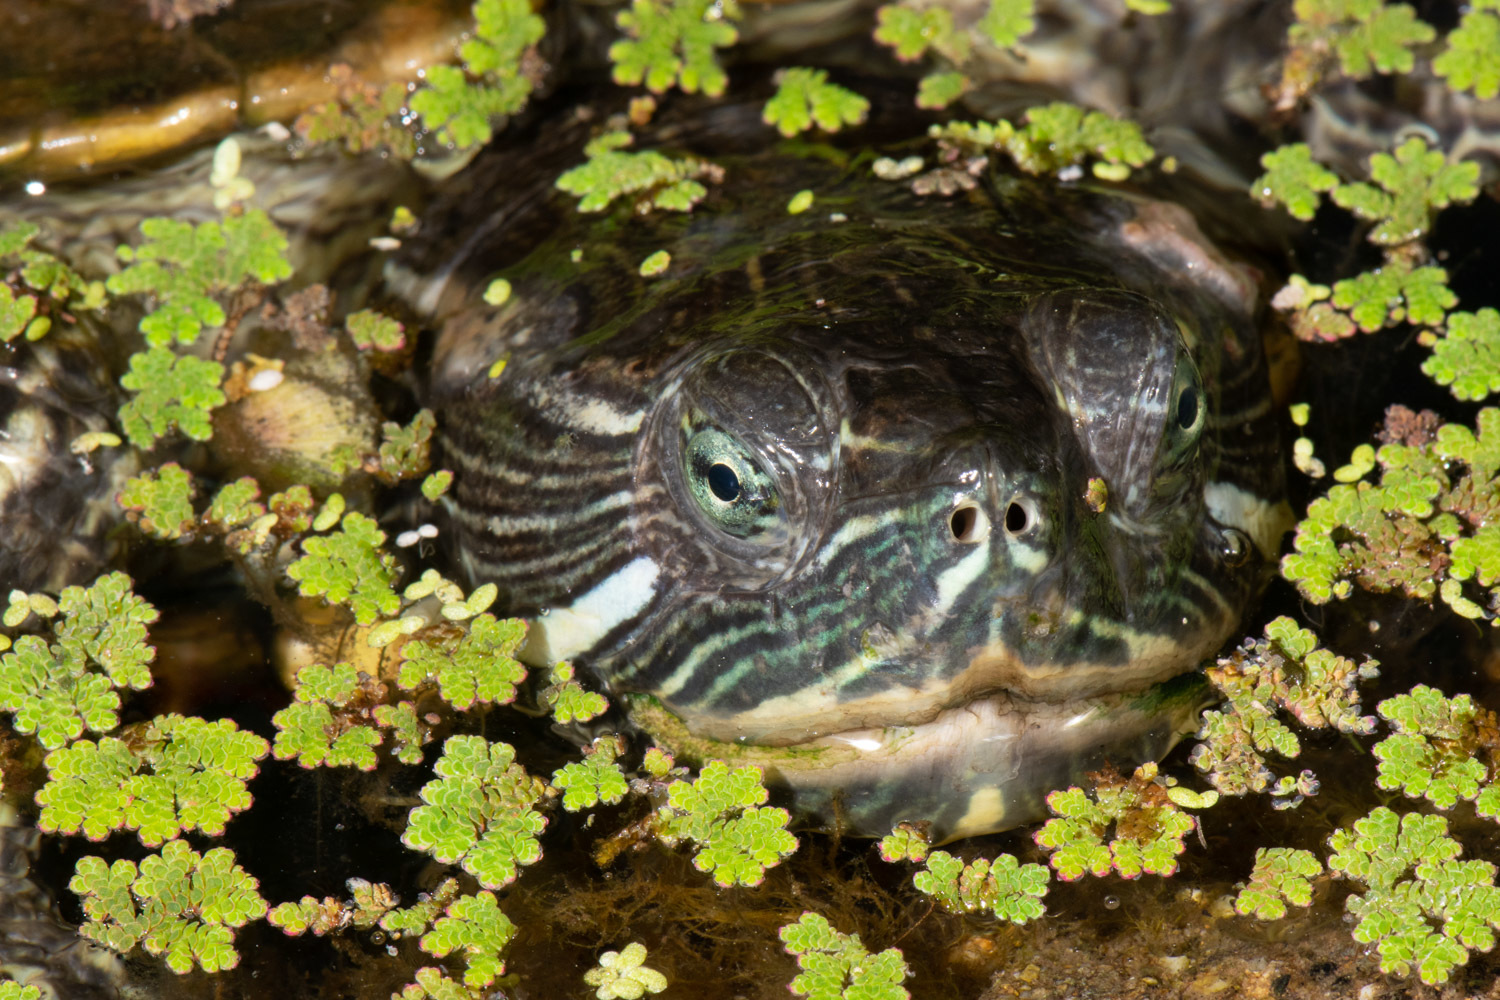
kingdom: Animalia
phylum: Chordata
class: Testudines
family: Emydidae
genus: Trachemys
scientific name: Trachemys scripta
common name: Slider
